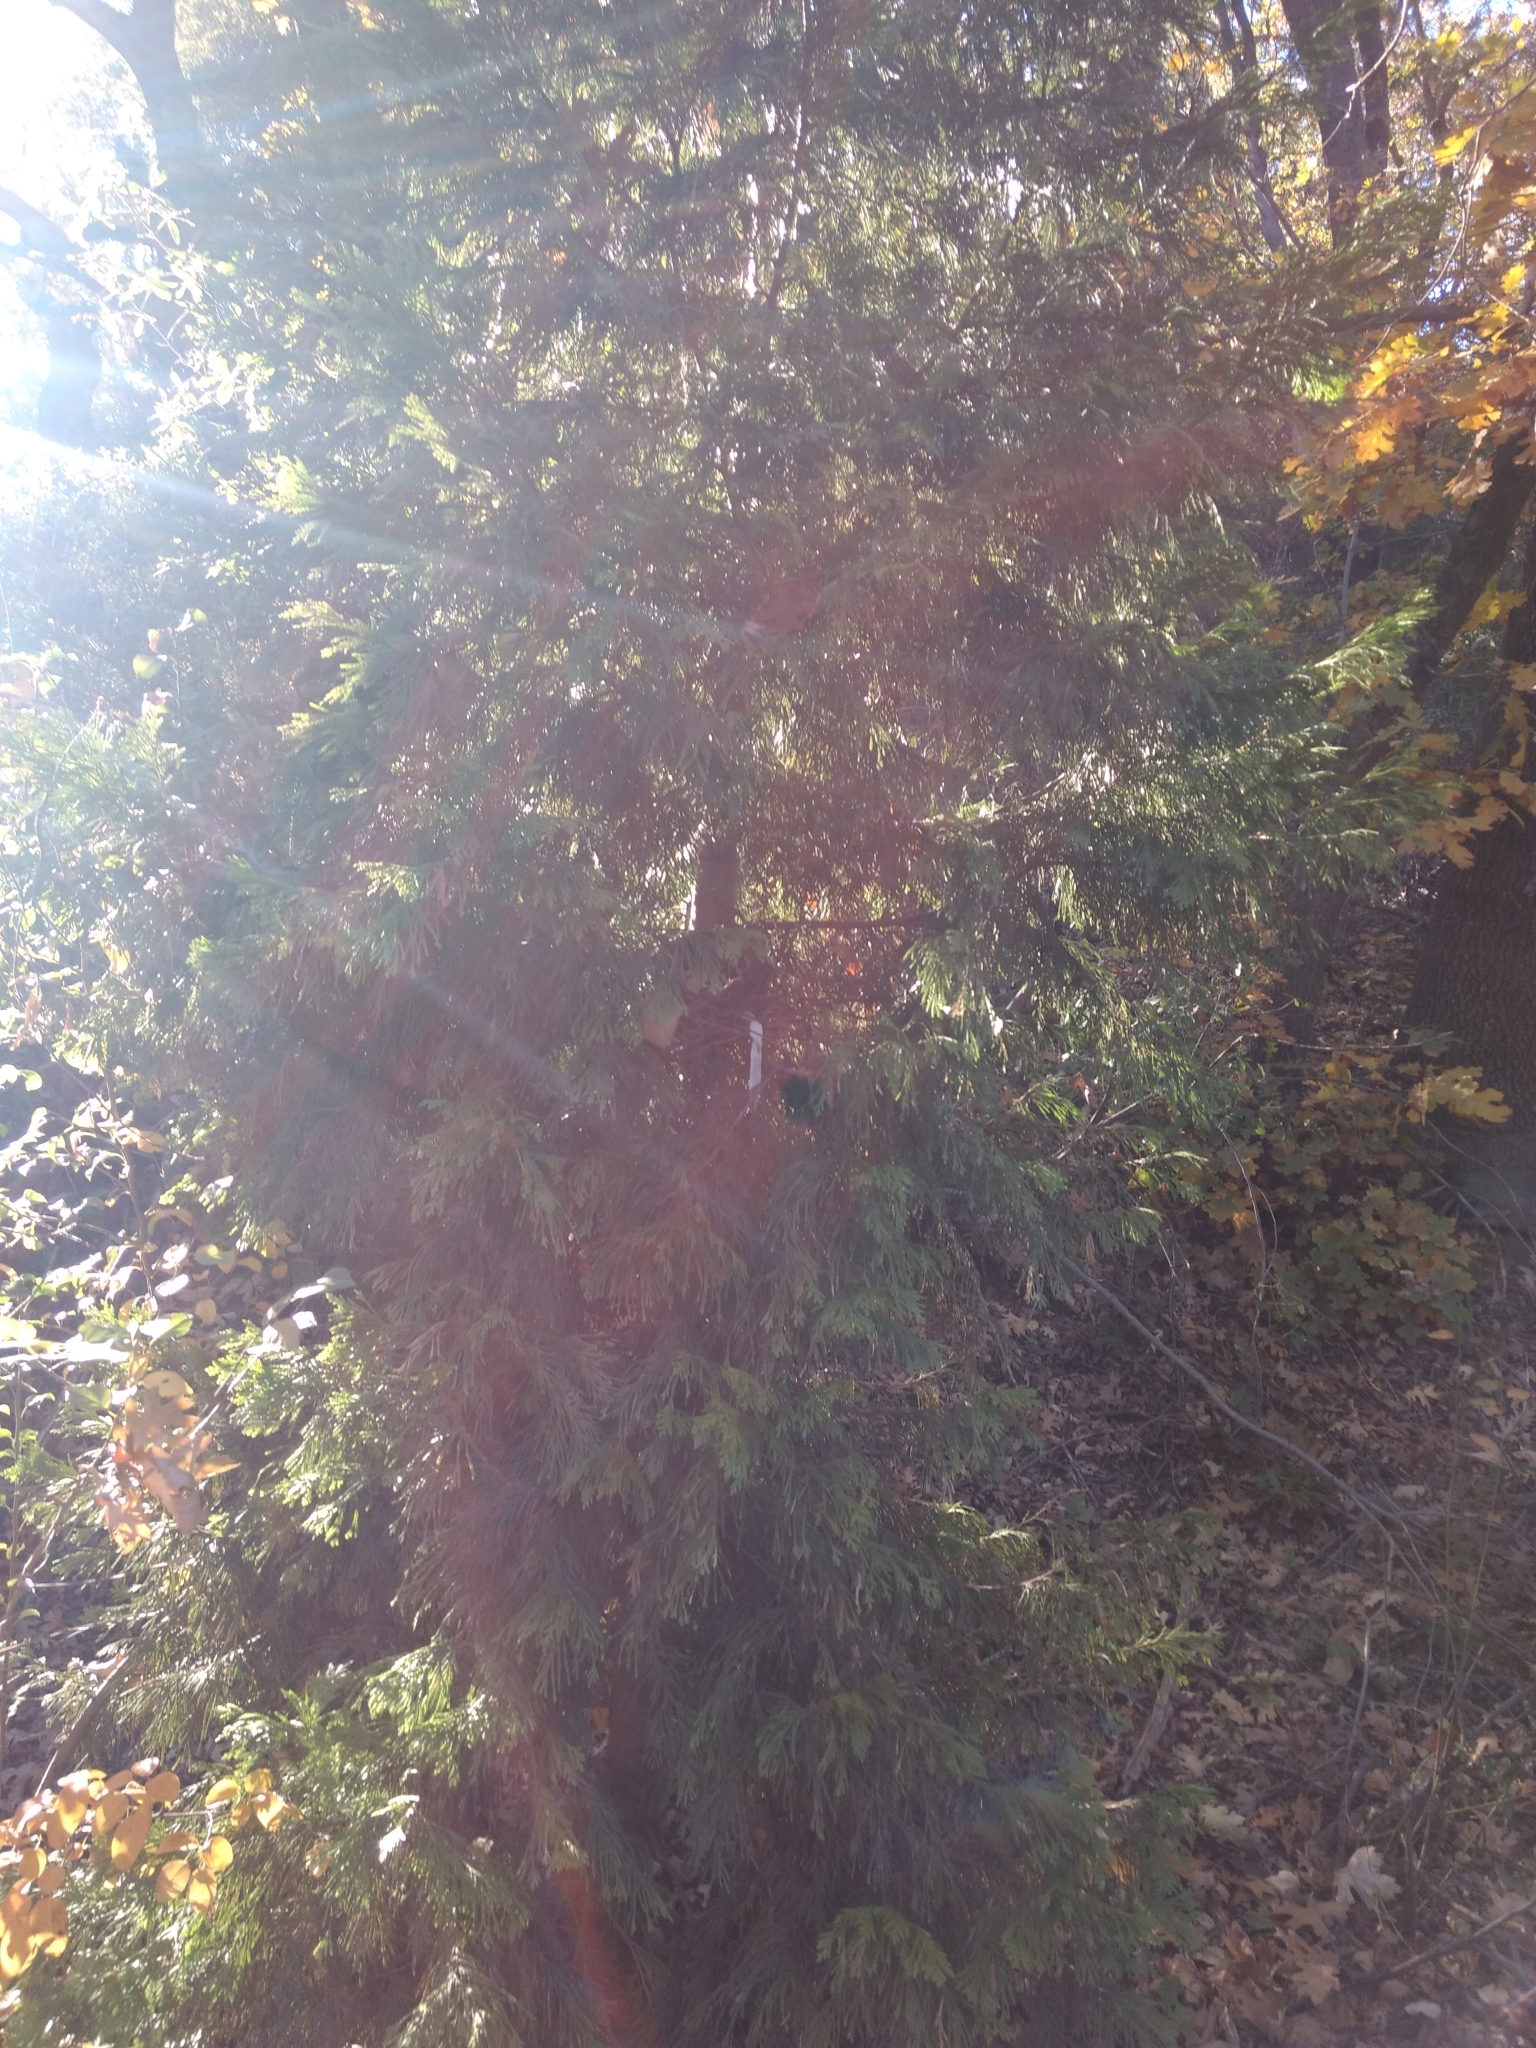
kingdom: Plantae
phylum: Tracheophyta
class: Pinopsida
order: Pinales
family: Cupressaceae
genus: Calocedrus
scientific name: Calocedrus decurrens
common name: Californian incense-cedar
